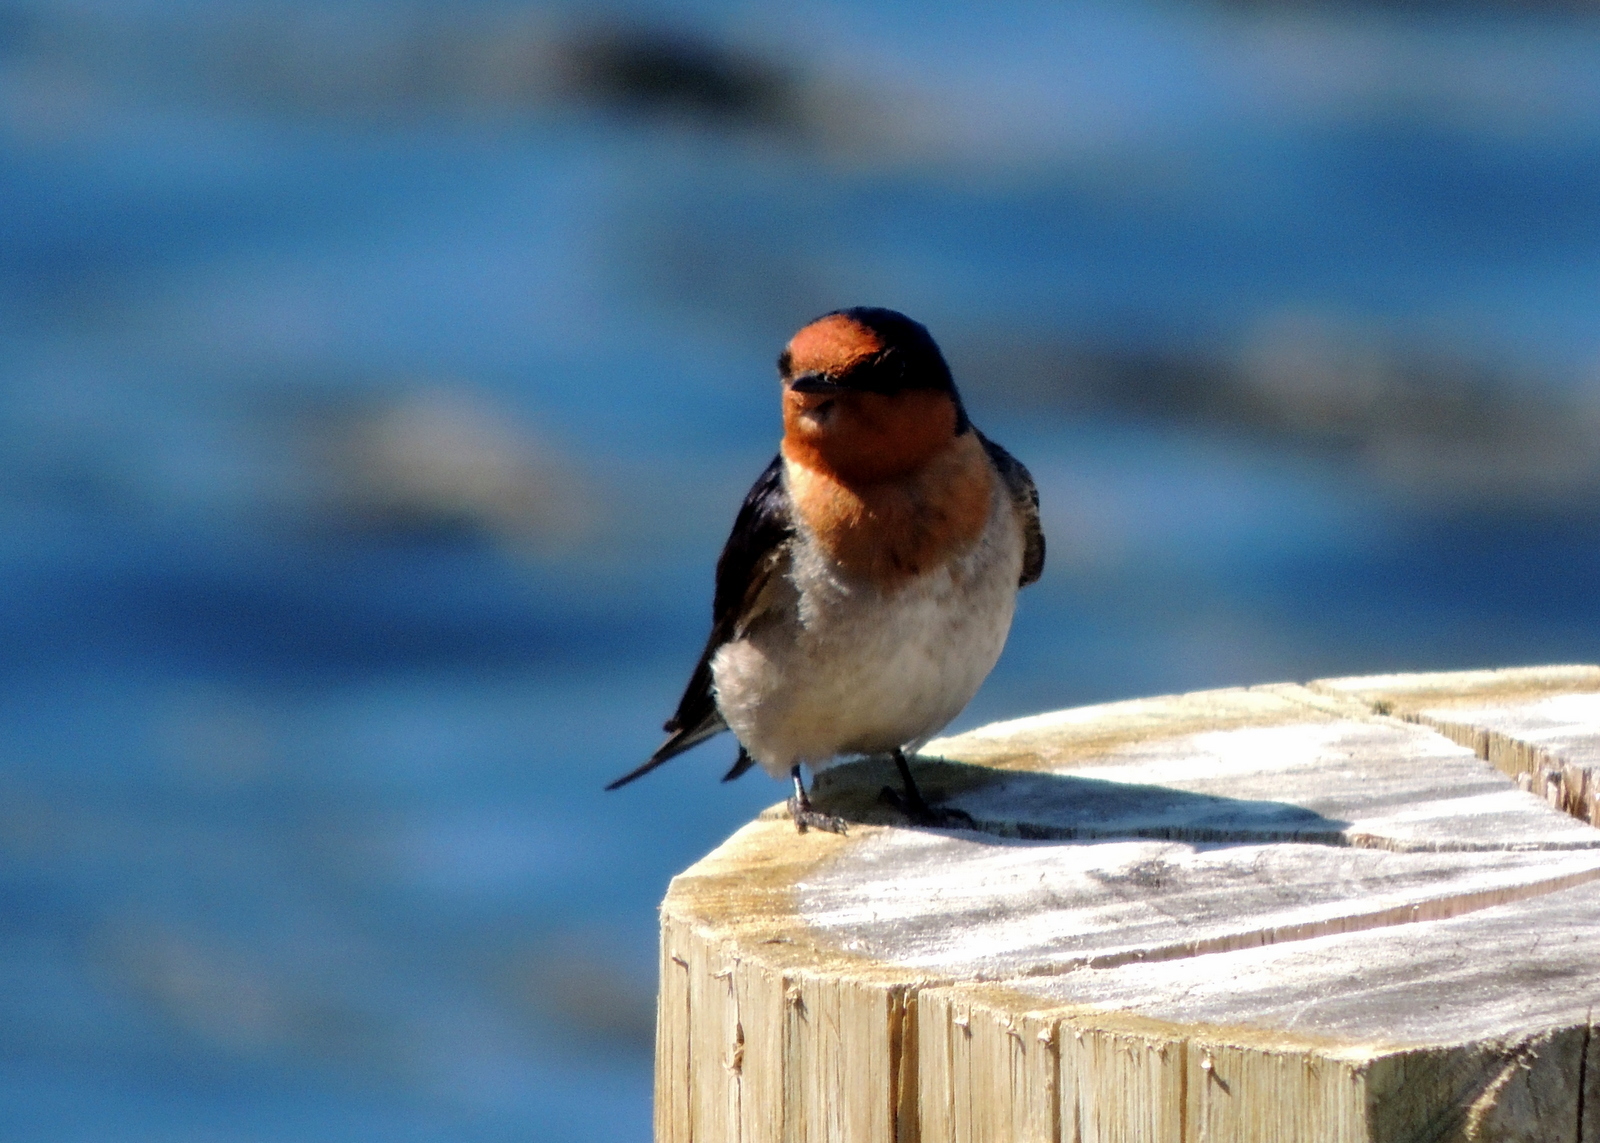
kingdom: Animalia
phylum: Chordata
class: Aves
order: Passeriformes
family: Hirundinidae
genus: Hirundo
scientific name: Hirundo neoxena
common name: Welcome swallow
